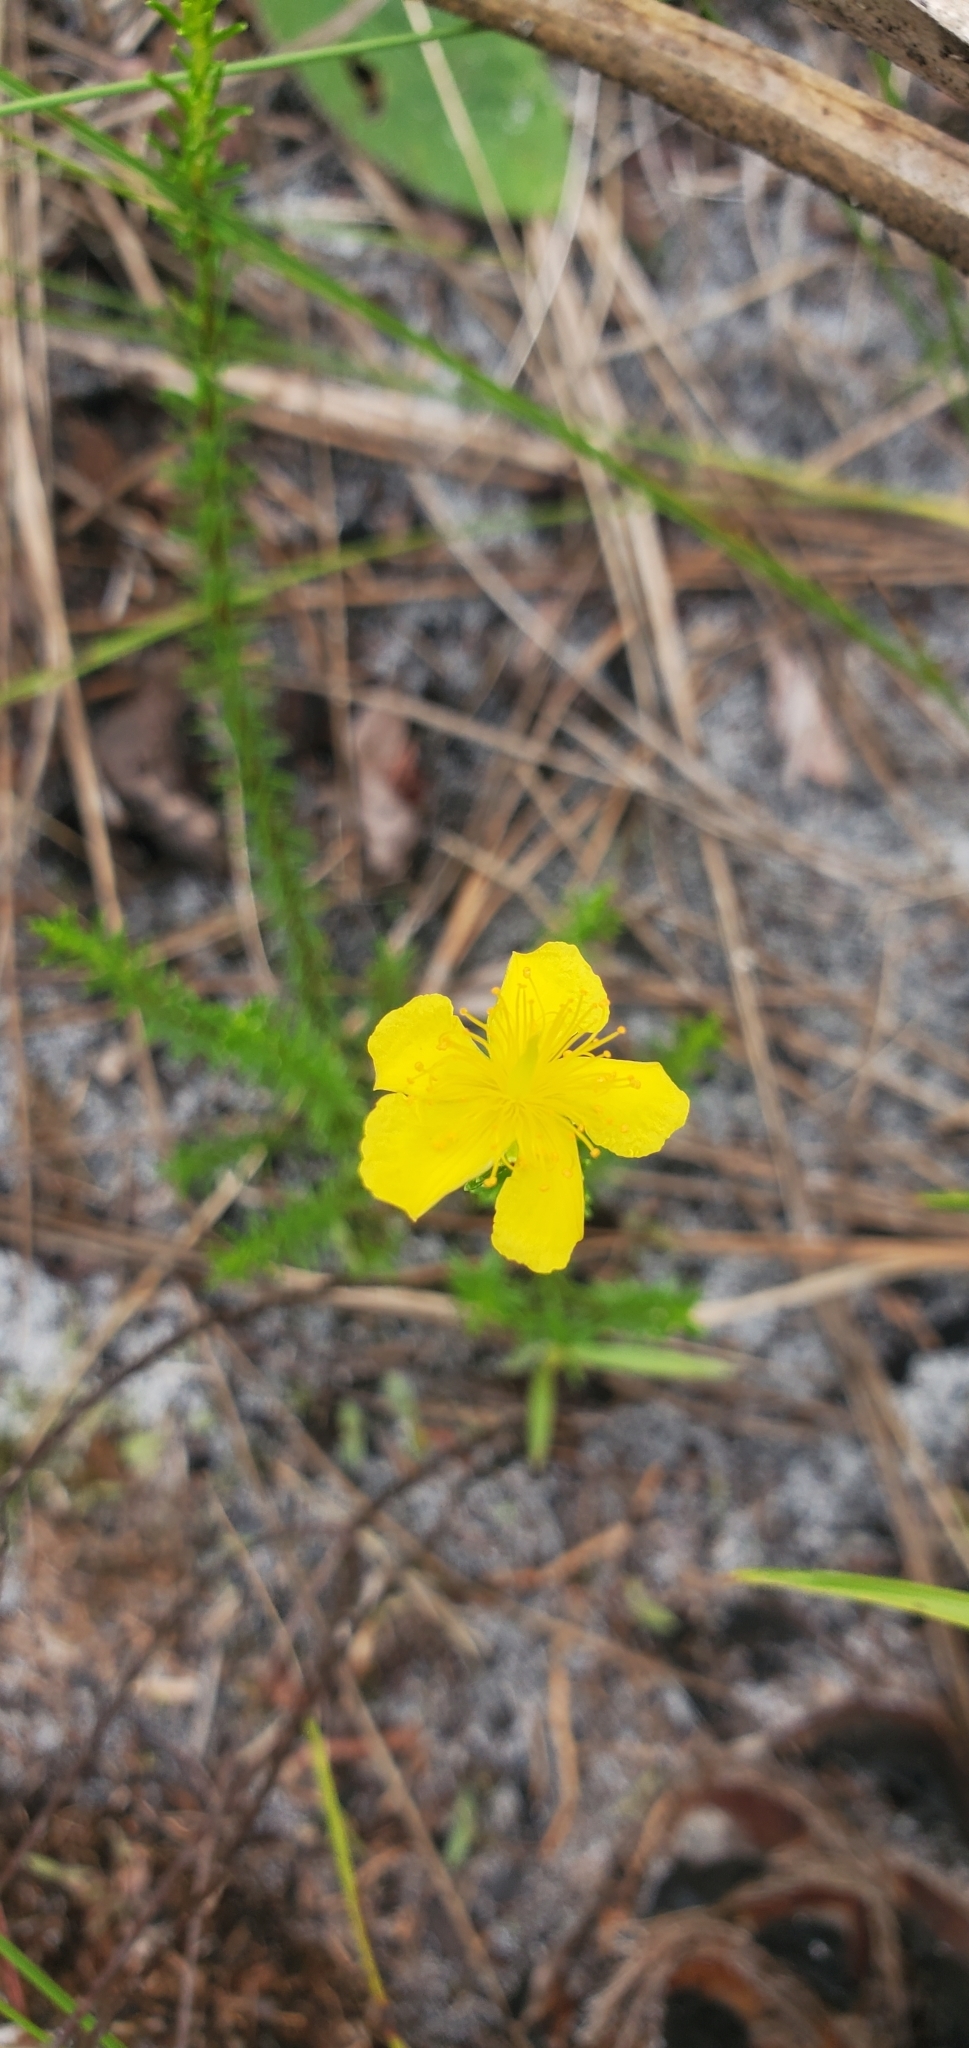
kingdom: Plantae
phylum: Tracheophyta
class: Magnoliopsida
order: Malpighiales
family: Hypericaceae
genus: Hypericum
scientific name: Hypericum tenuifolium
